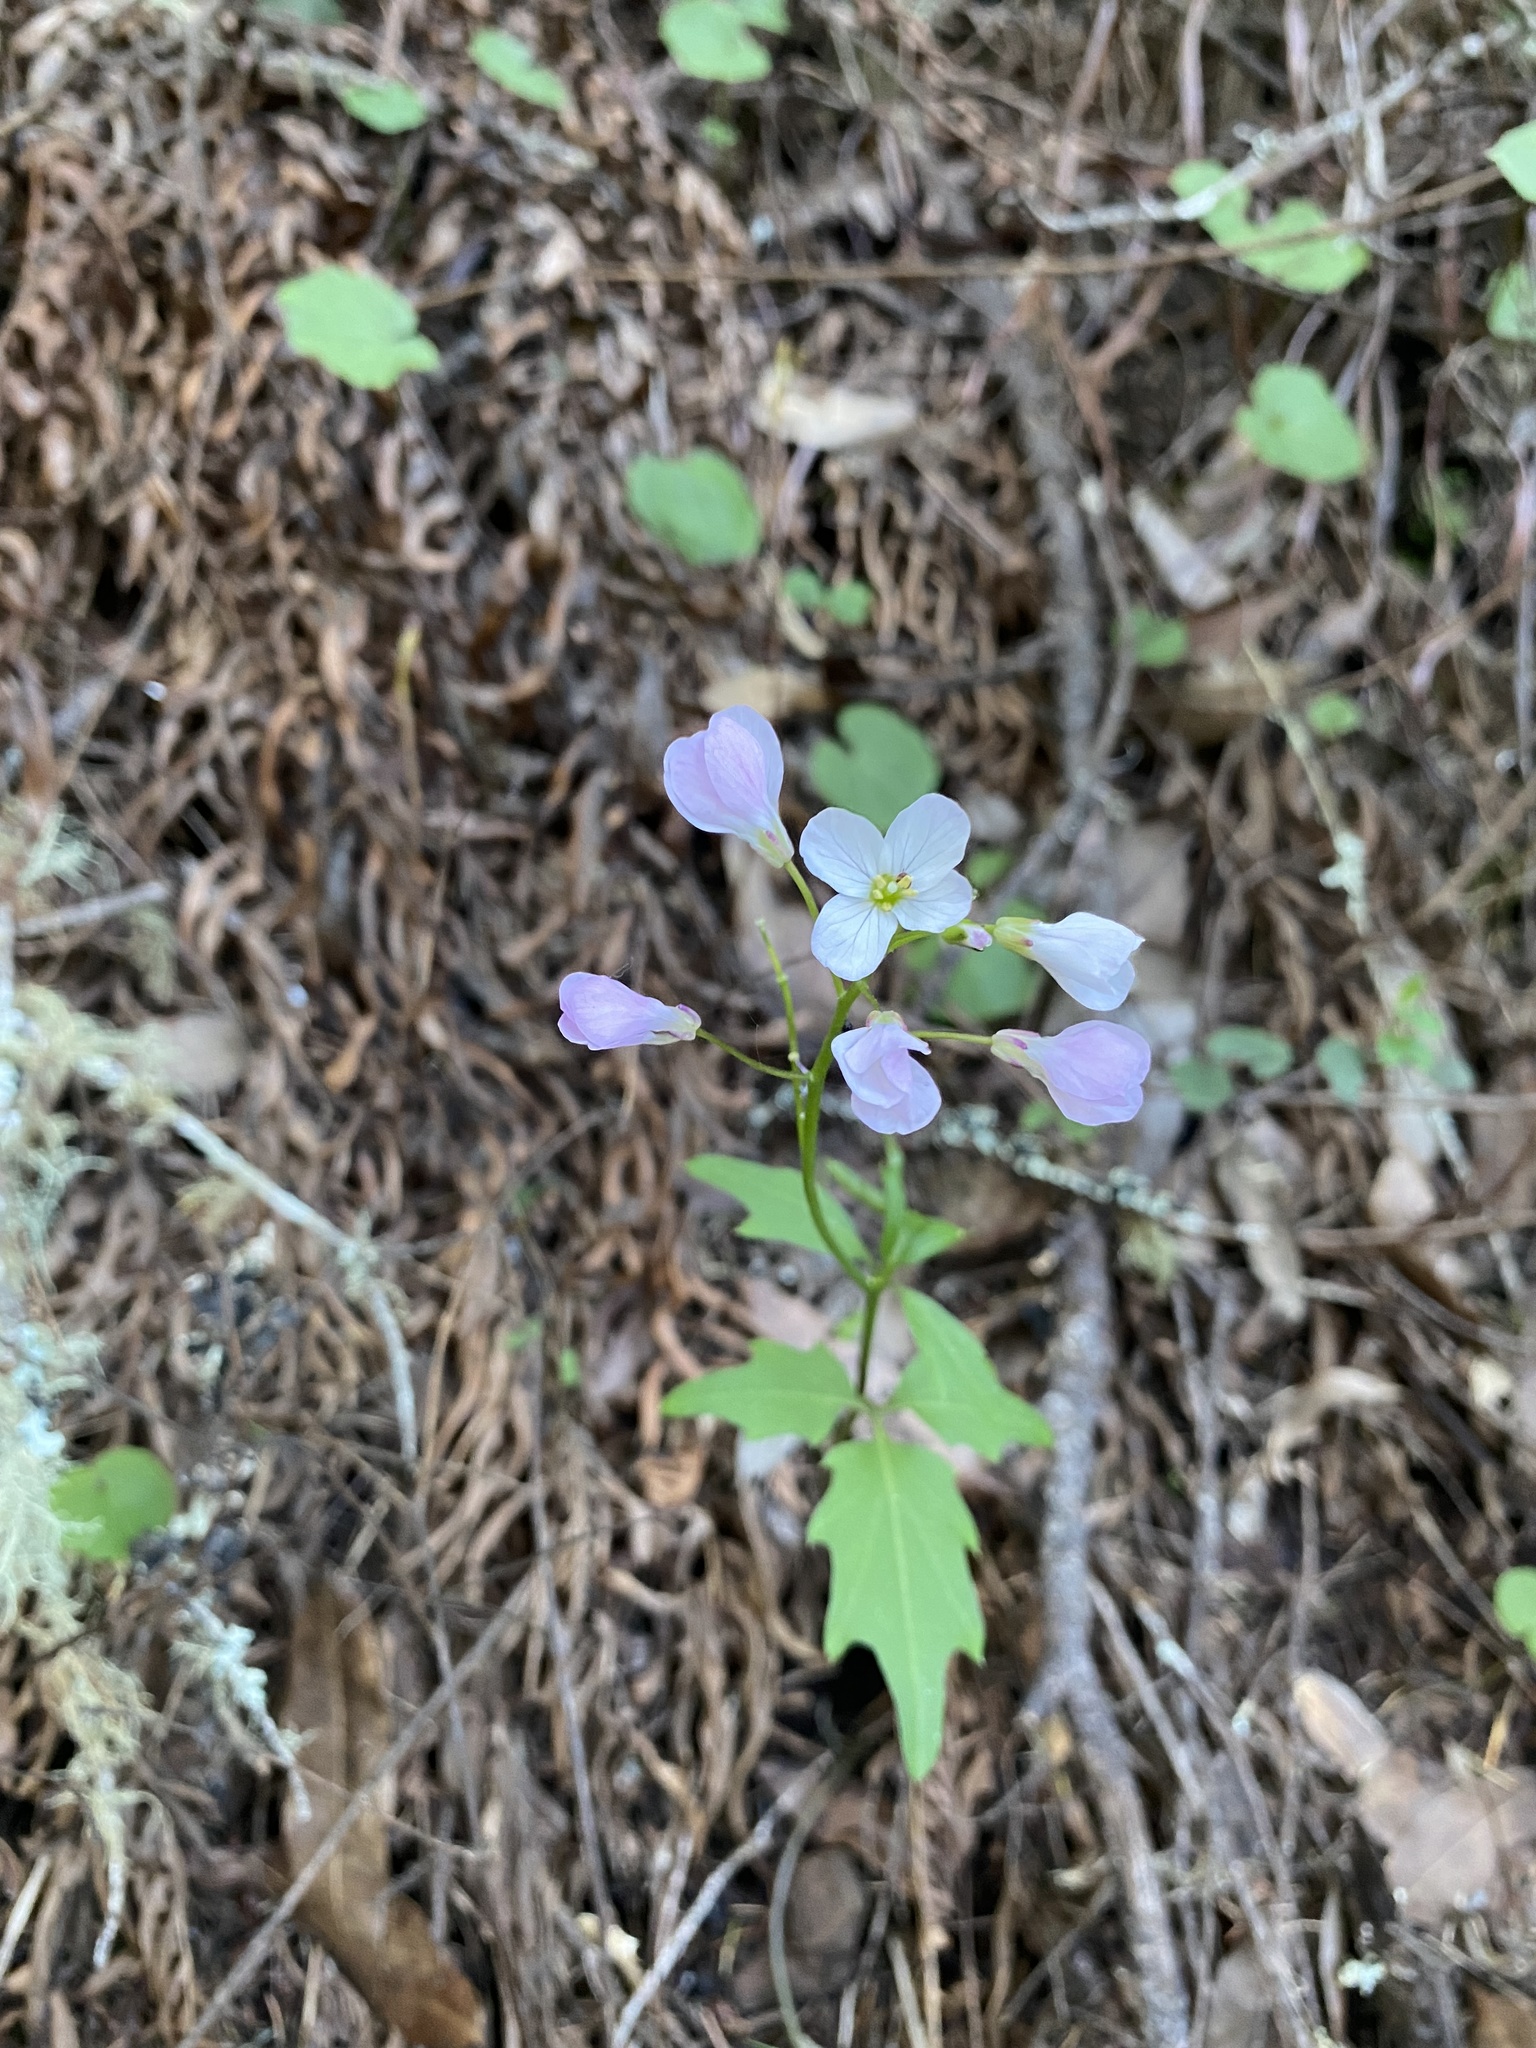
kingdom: Plantae
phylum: Tracheophyta
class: Magnoliopsida
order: Brassicales
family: Brassicaceae
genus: Cardamine
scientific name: Cardamine californica
